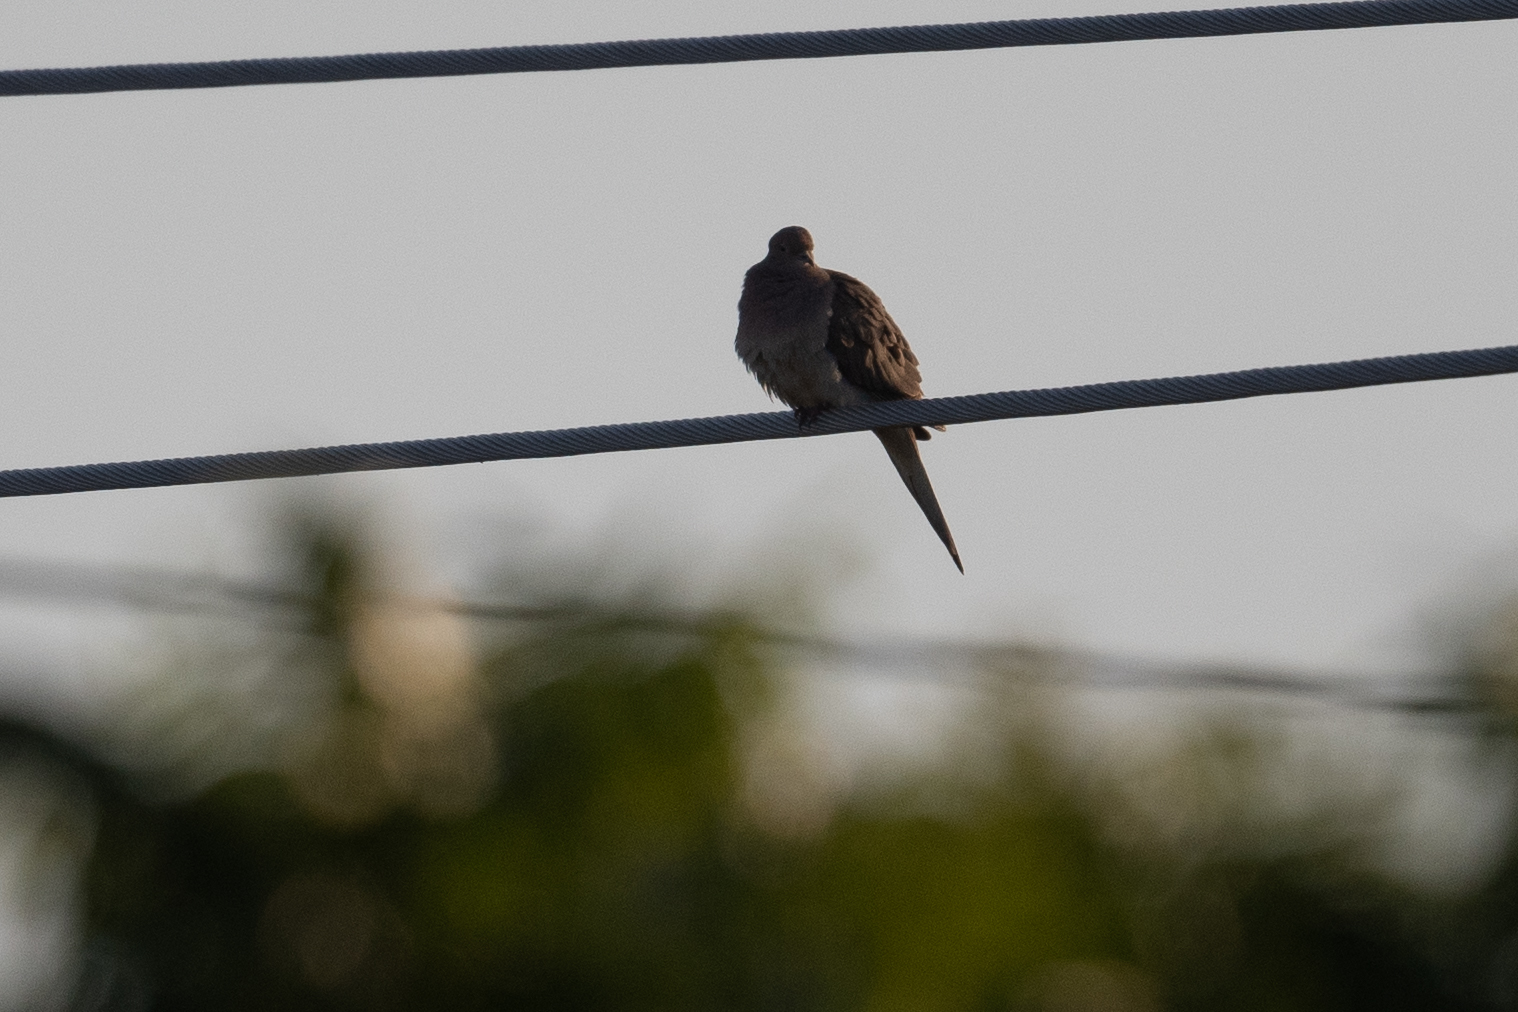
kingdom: Animalia
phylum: Chordata
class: Aves
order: Columbiformes
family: Columbidae
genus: Zenaida
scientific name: Zenaida macroura
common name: Mourning dove
